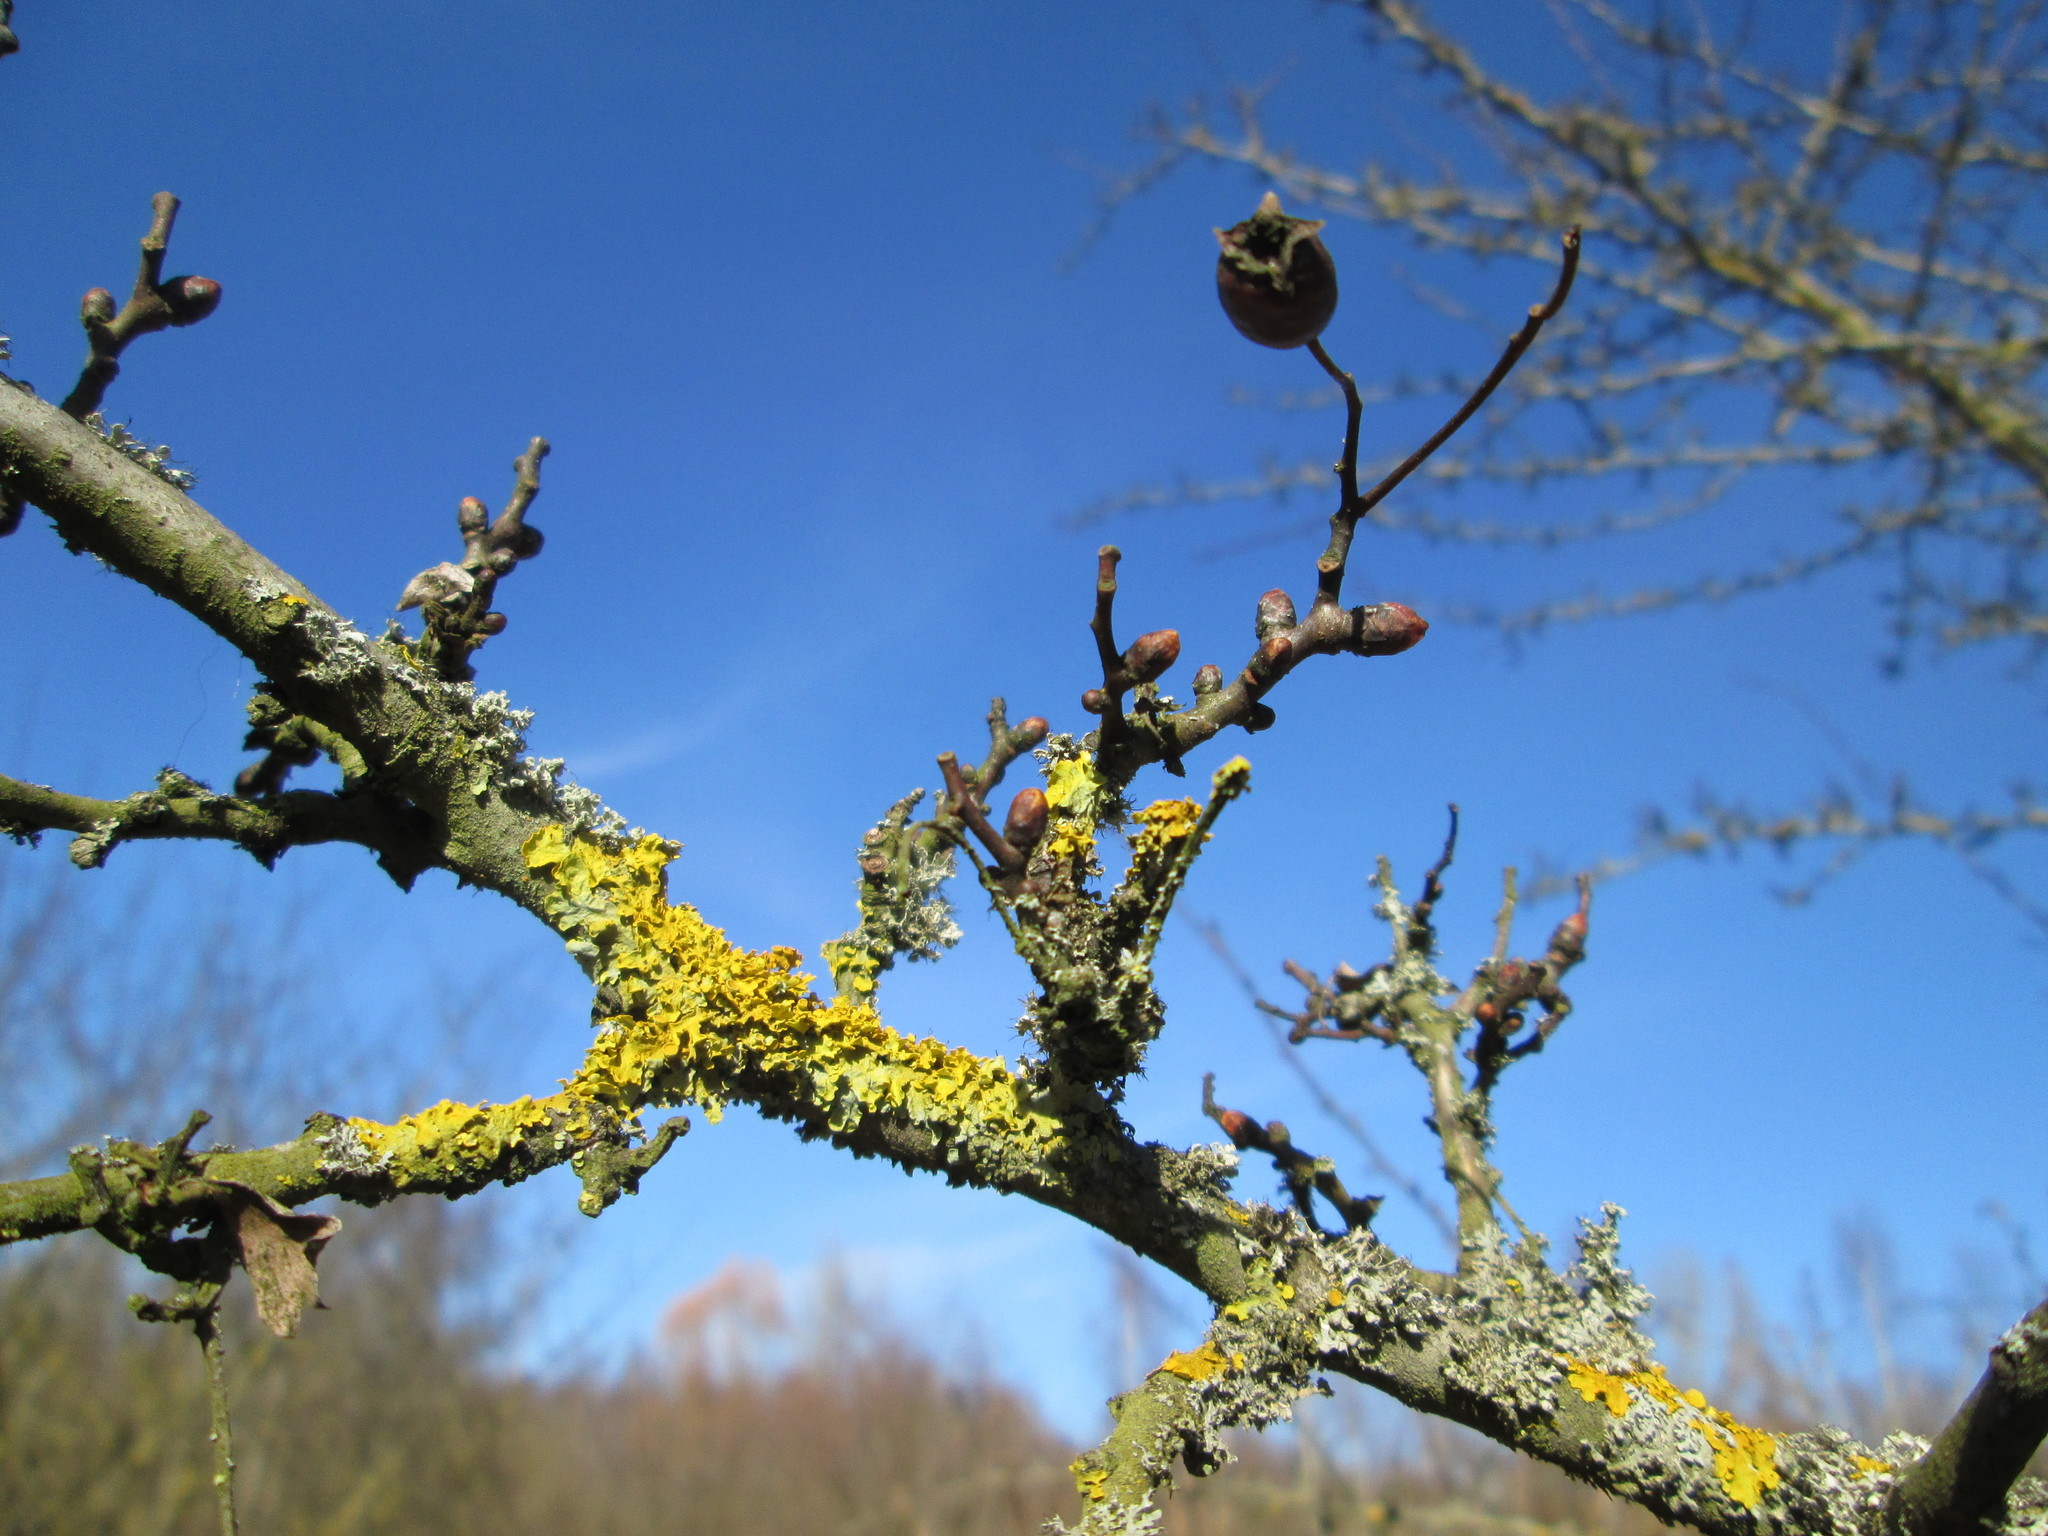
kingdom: Fungi
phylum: Ascomycota
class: Lecanoromycetes
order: Teloschistales
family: Teloschistaceae
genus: Xanthoria
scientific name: Xanthoria parietina
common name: Common orange lichen
